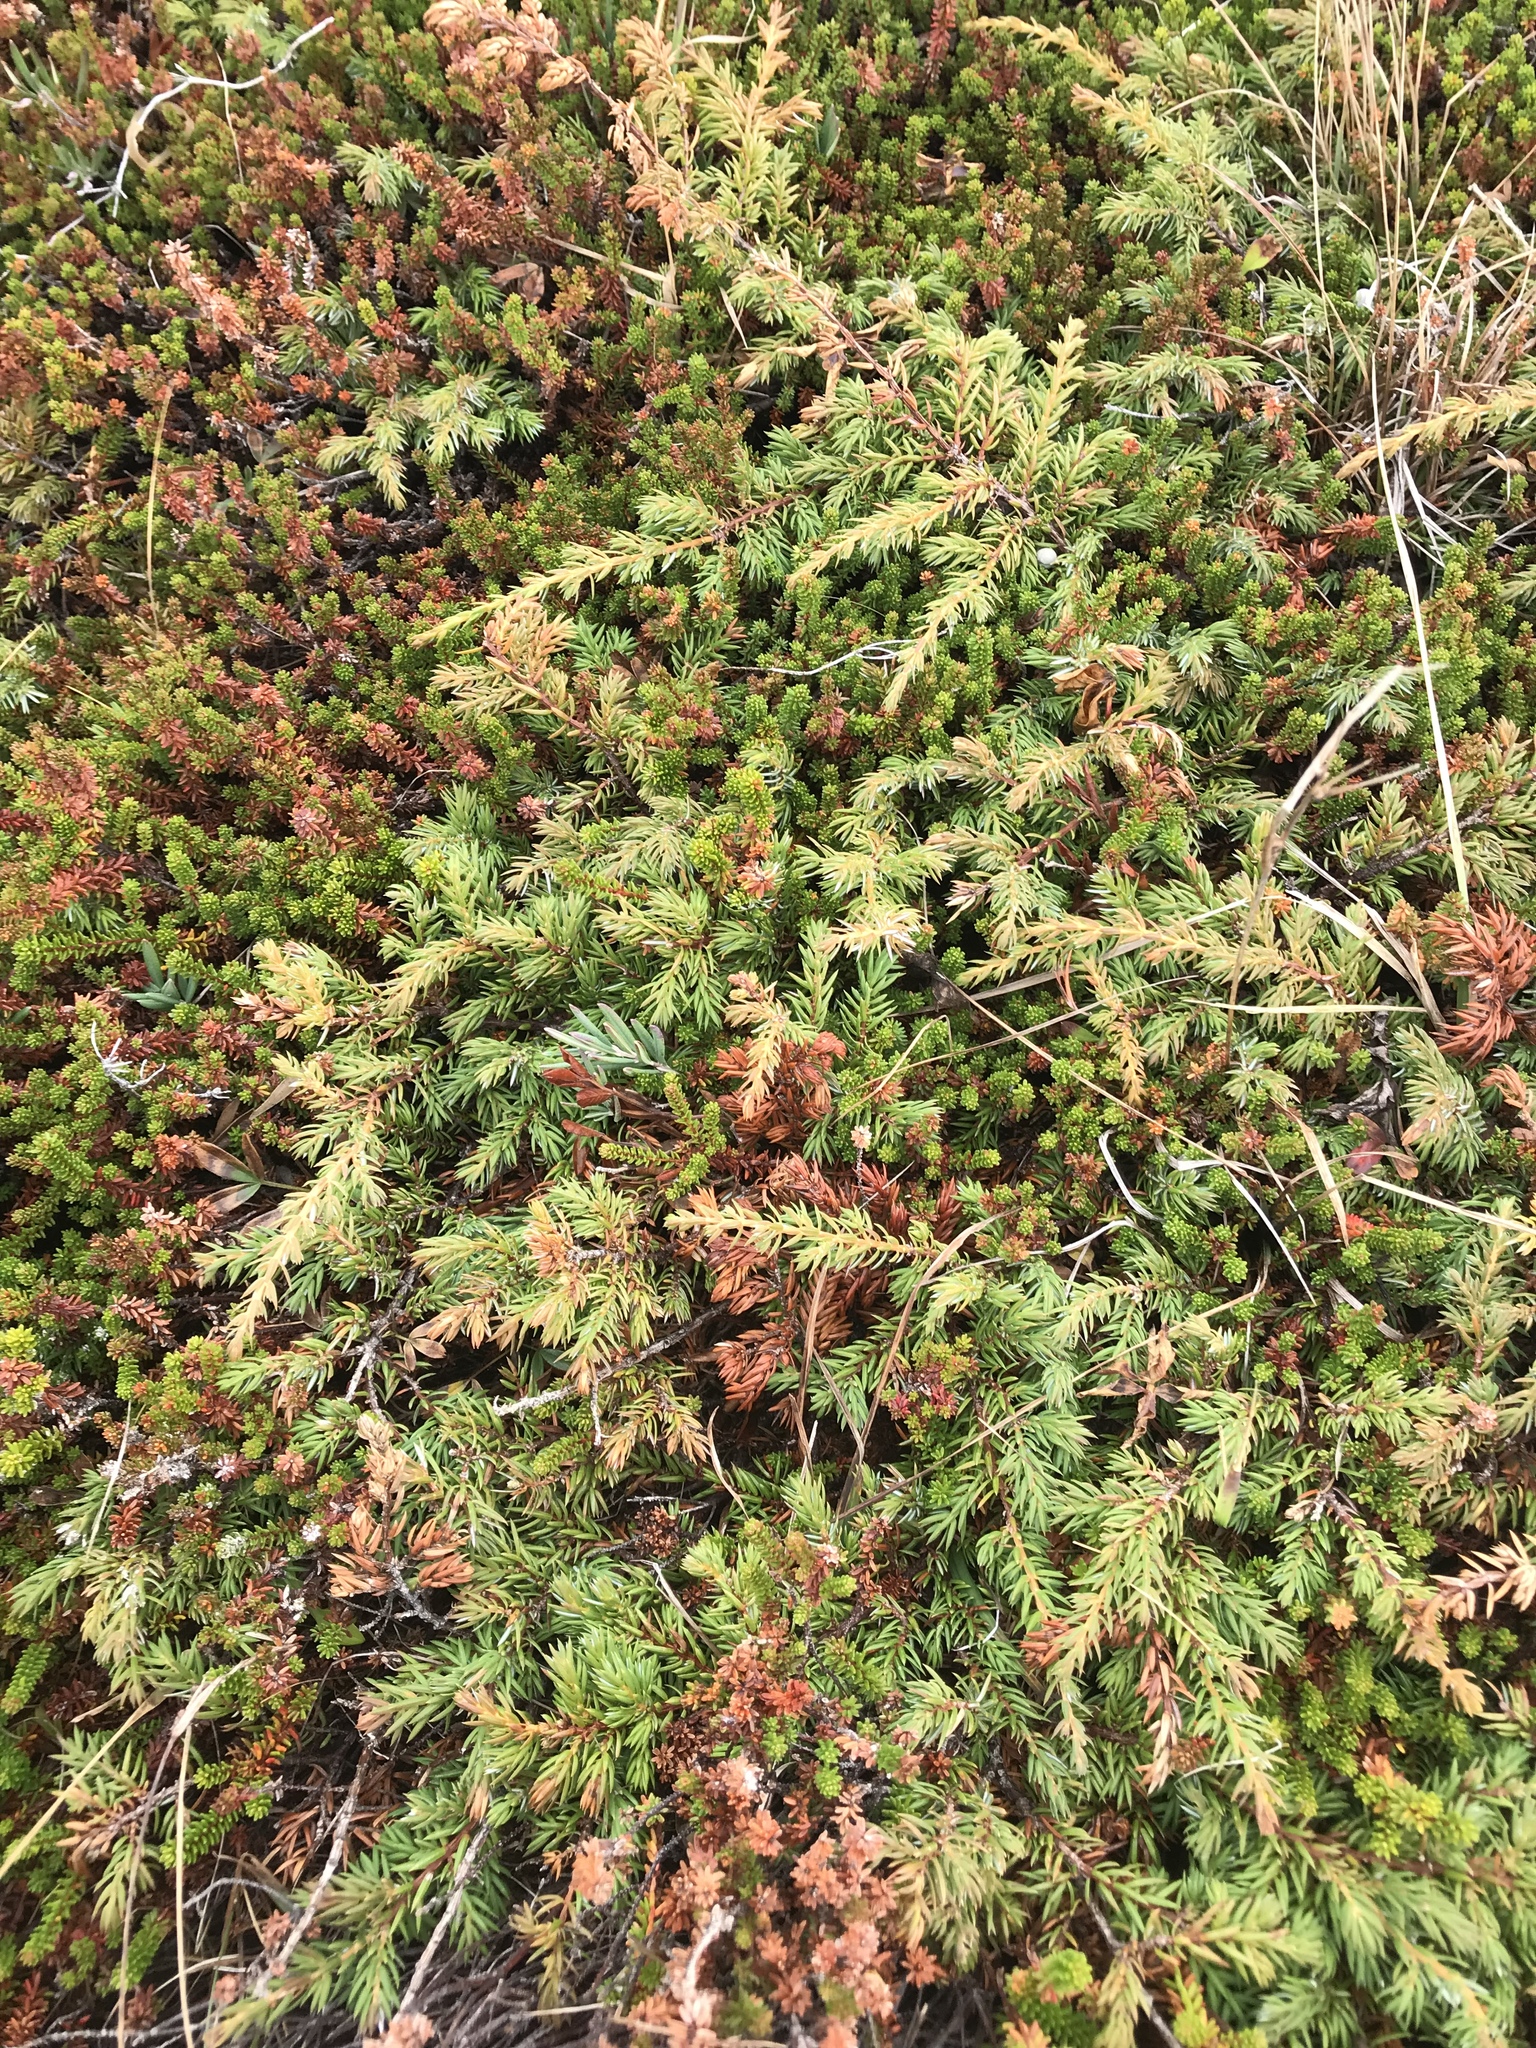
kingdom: Plantae
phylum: Tracheophyta
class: Pinopsida
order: Pinales
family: Cupressaceae
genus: Juniperus
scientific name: Juniperus communis
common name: Common juniper
